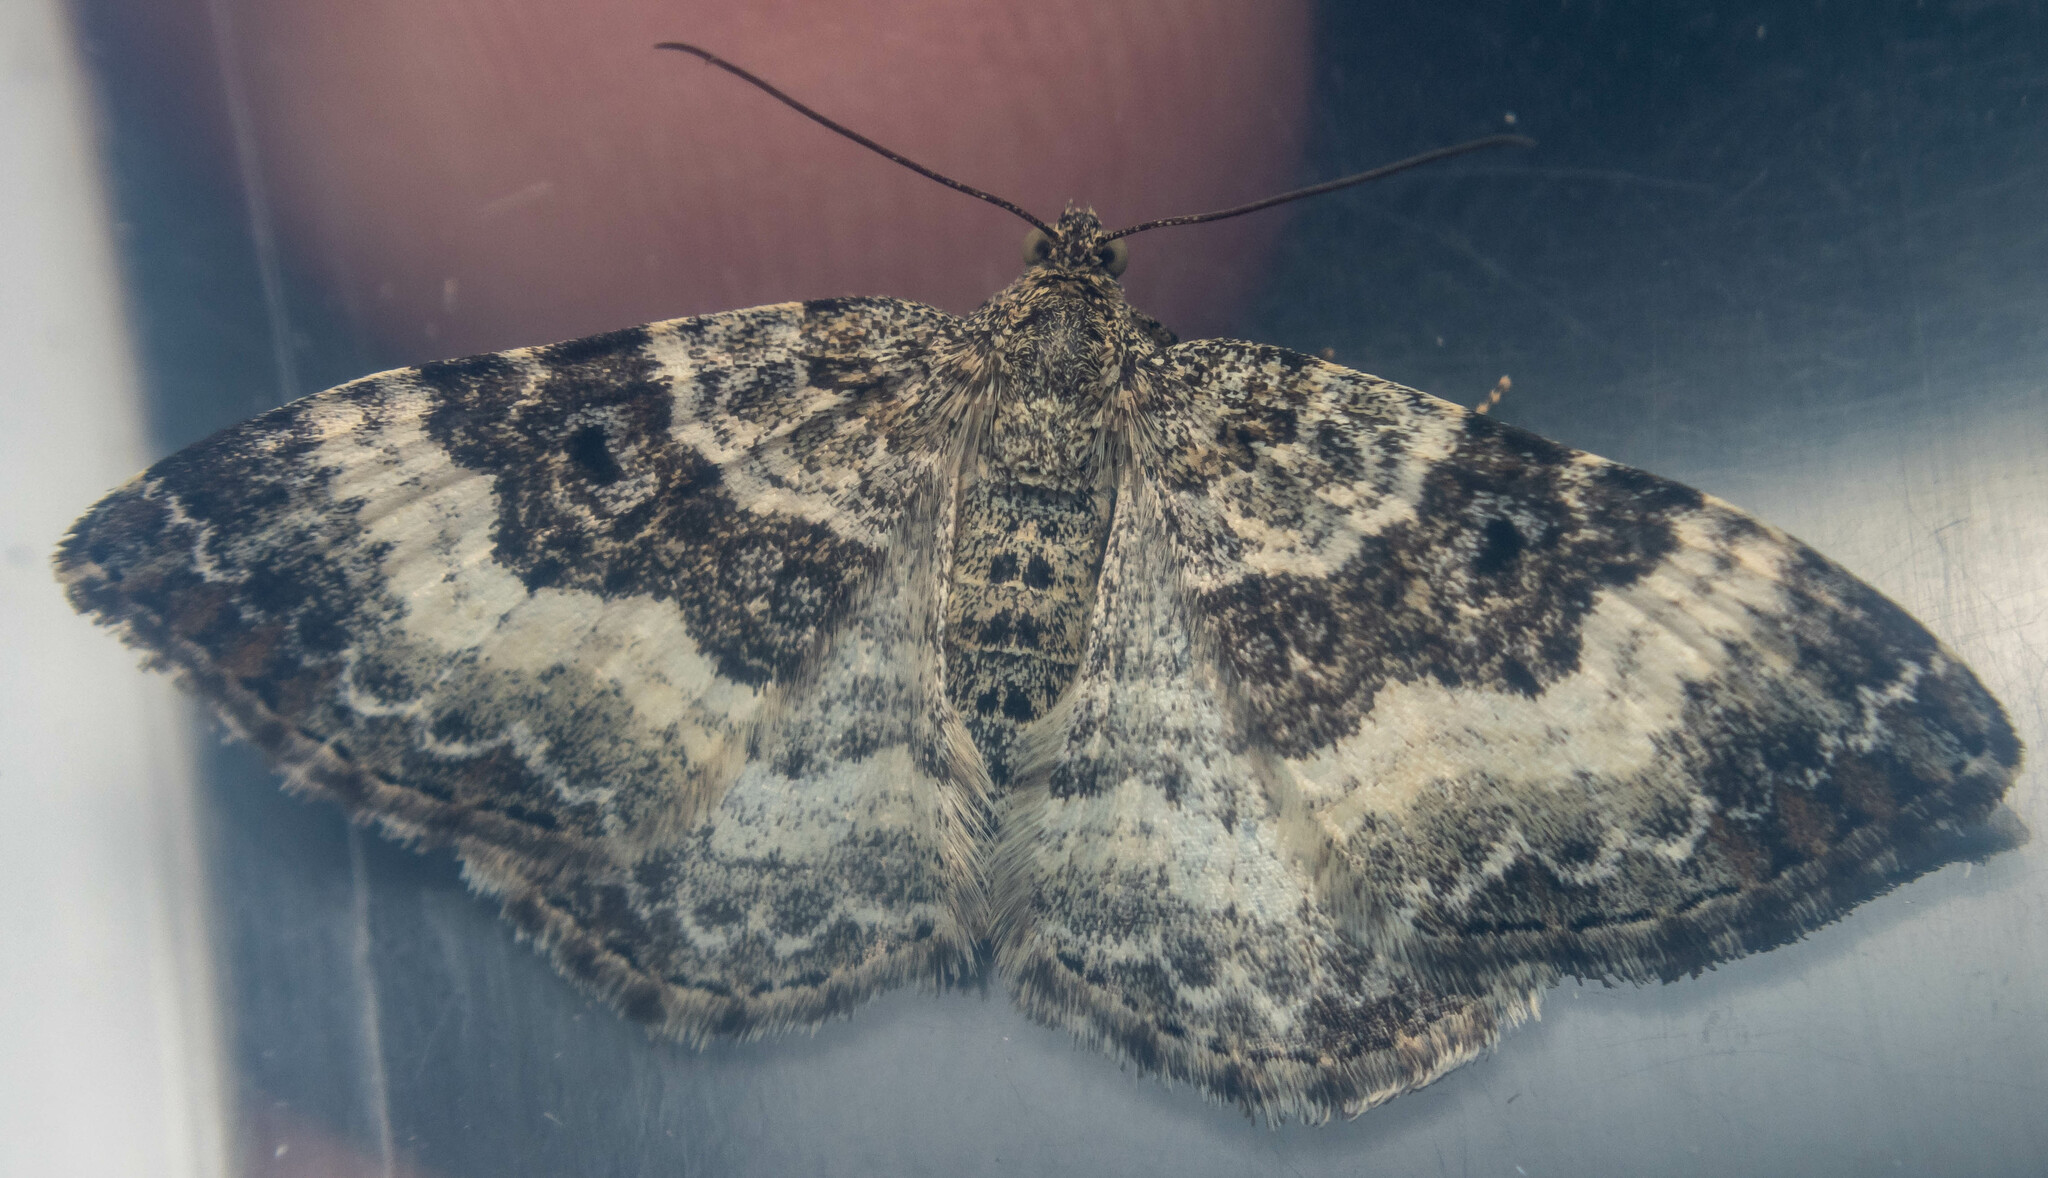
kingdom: Animalia
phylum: Arthropoda
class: Insecta
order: Lepidoptera
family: Geometridae
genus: Epirrhoe
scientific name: Epirrhoe alternata
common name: Common carpet
